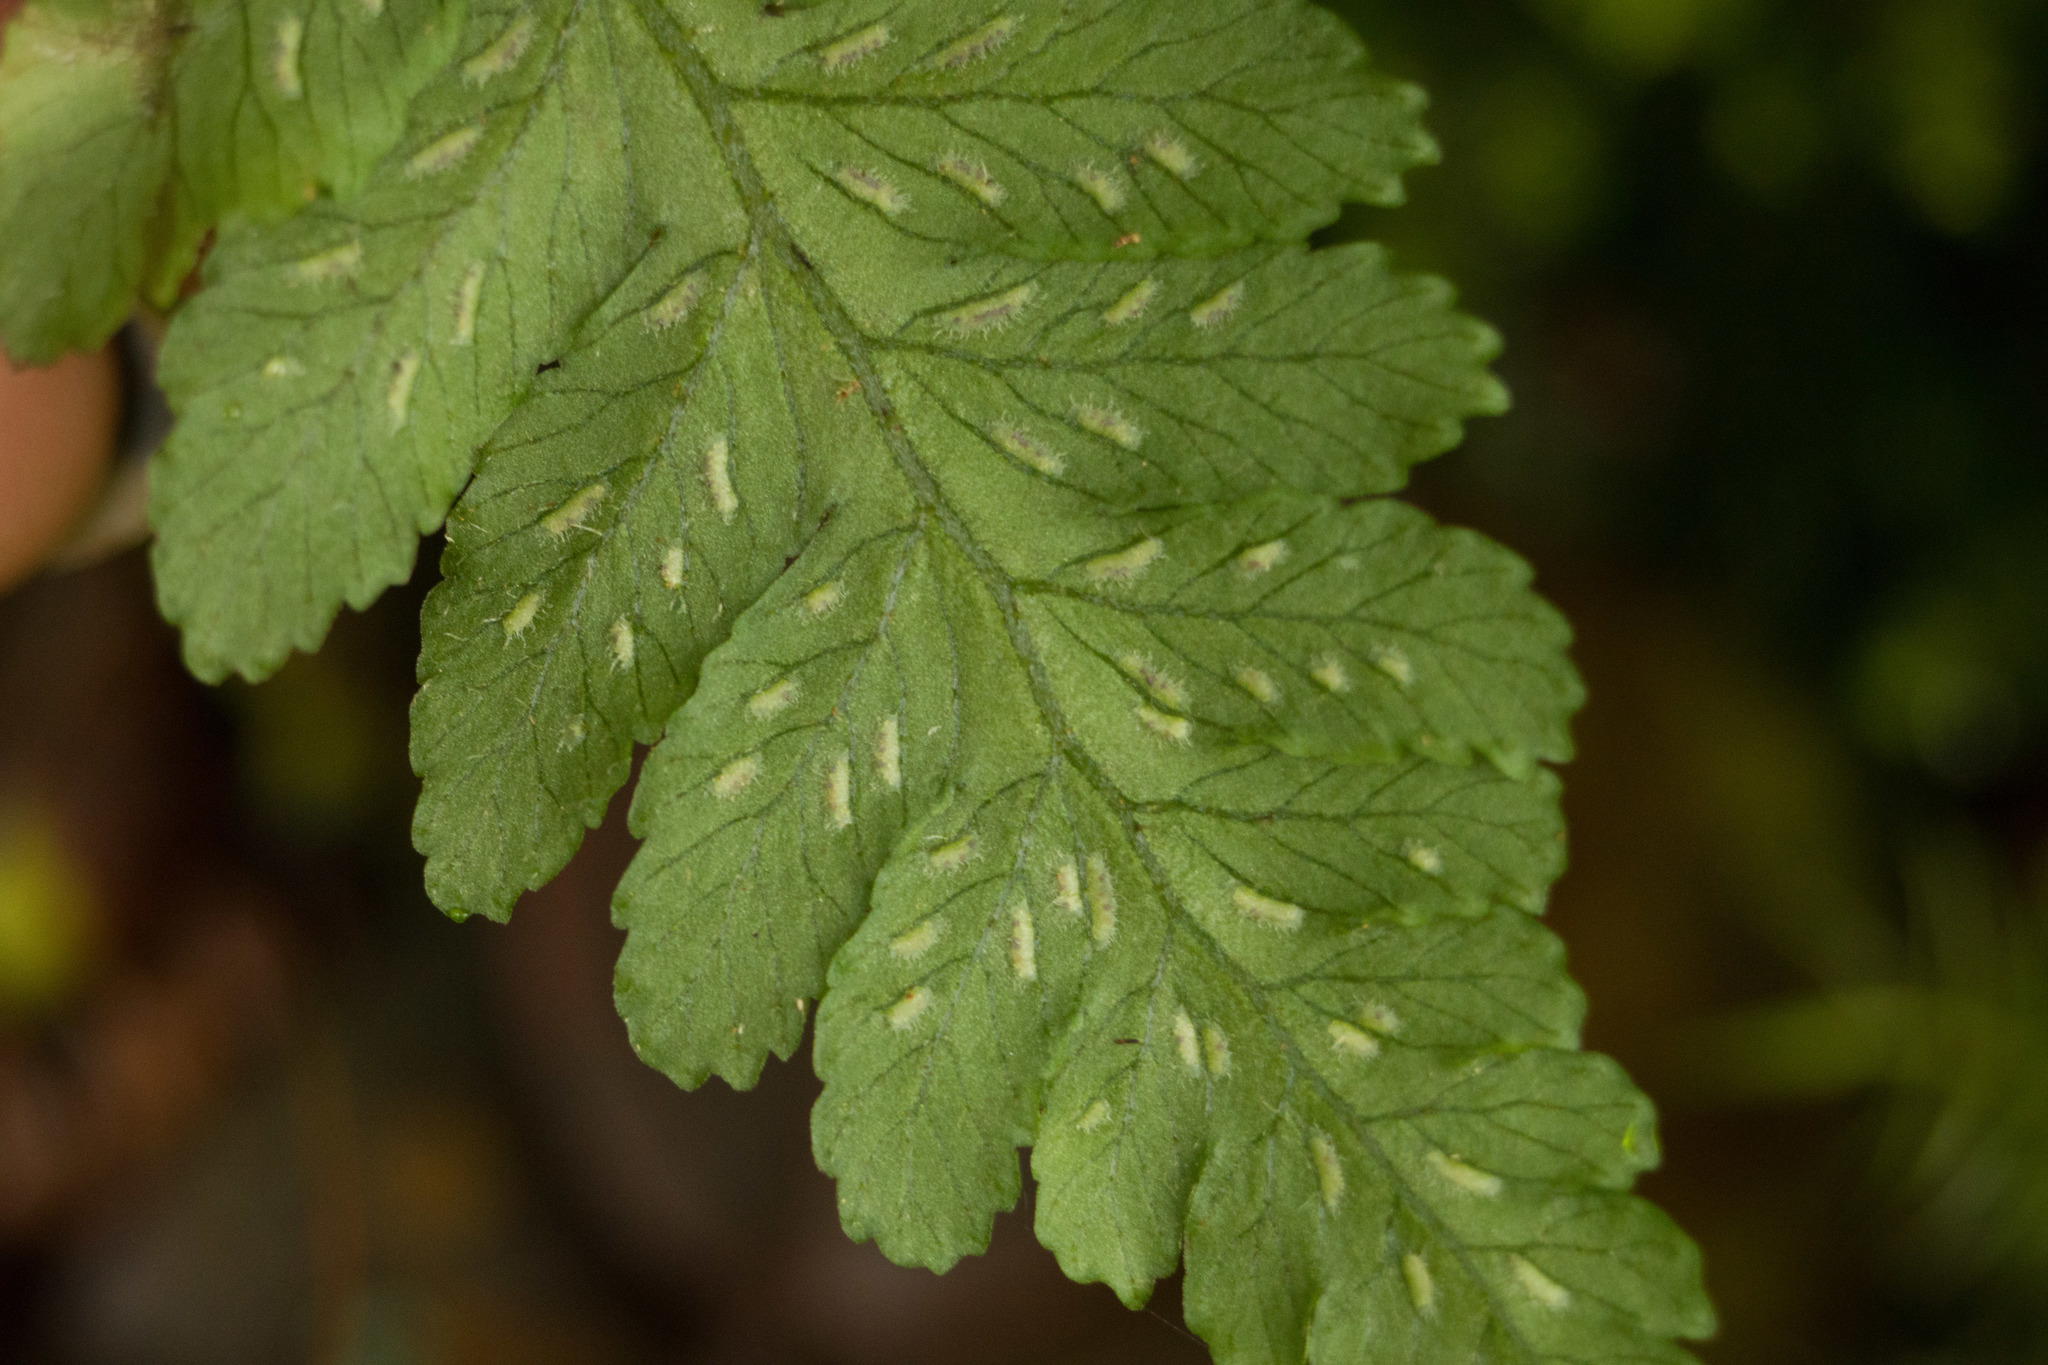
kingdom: Plantae
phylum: Tracheophyta
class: Polypodiopsida
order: Polypodiales
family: Athyriaceae
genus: Deparia
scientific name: Deparia petersenii
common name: Japanese false spleenwort
